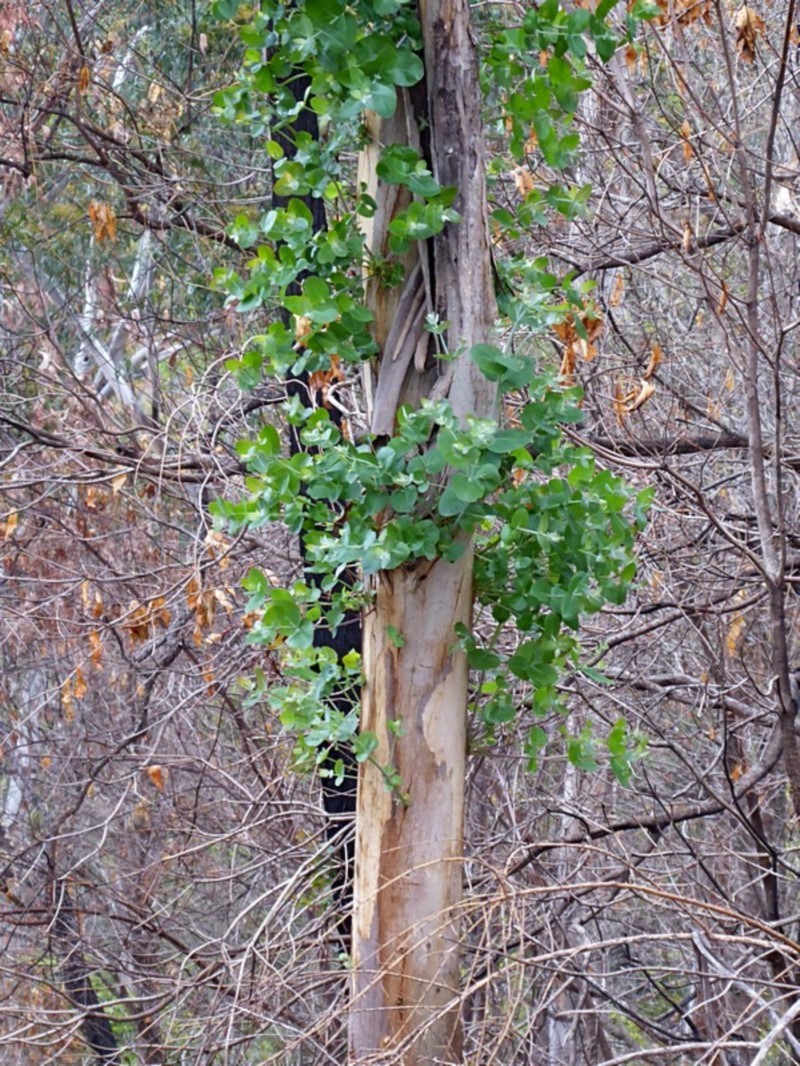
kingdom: Plantae
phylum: Tracheophyta
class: Magnoliopsida
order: Myrtales
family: Myrtaceae
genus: Eucalyptus
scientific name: Eucalyptus cypellocarpa
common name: Mountain grey gum
